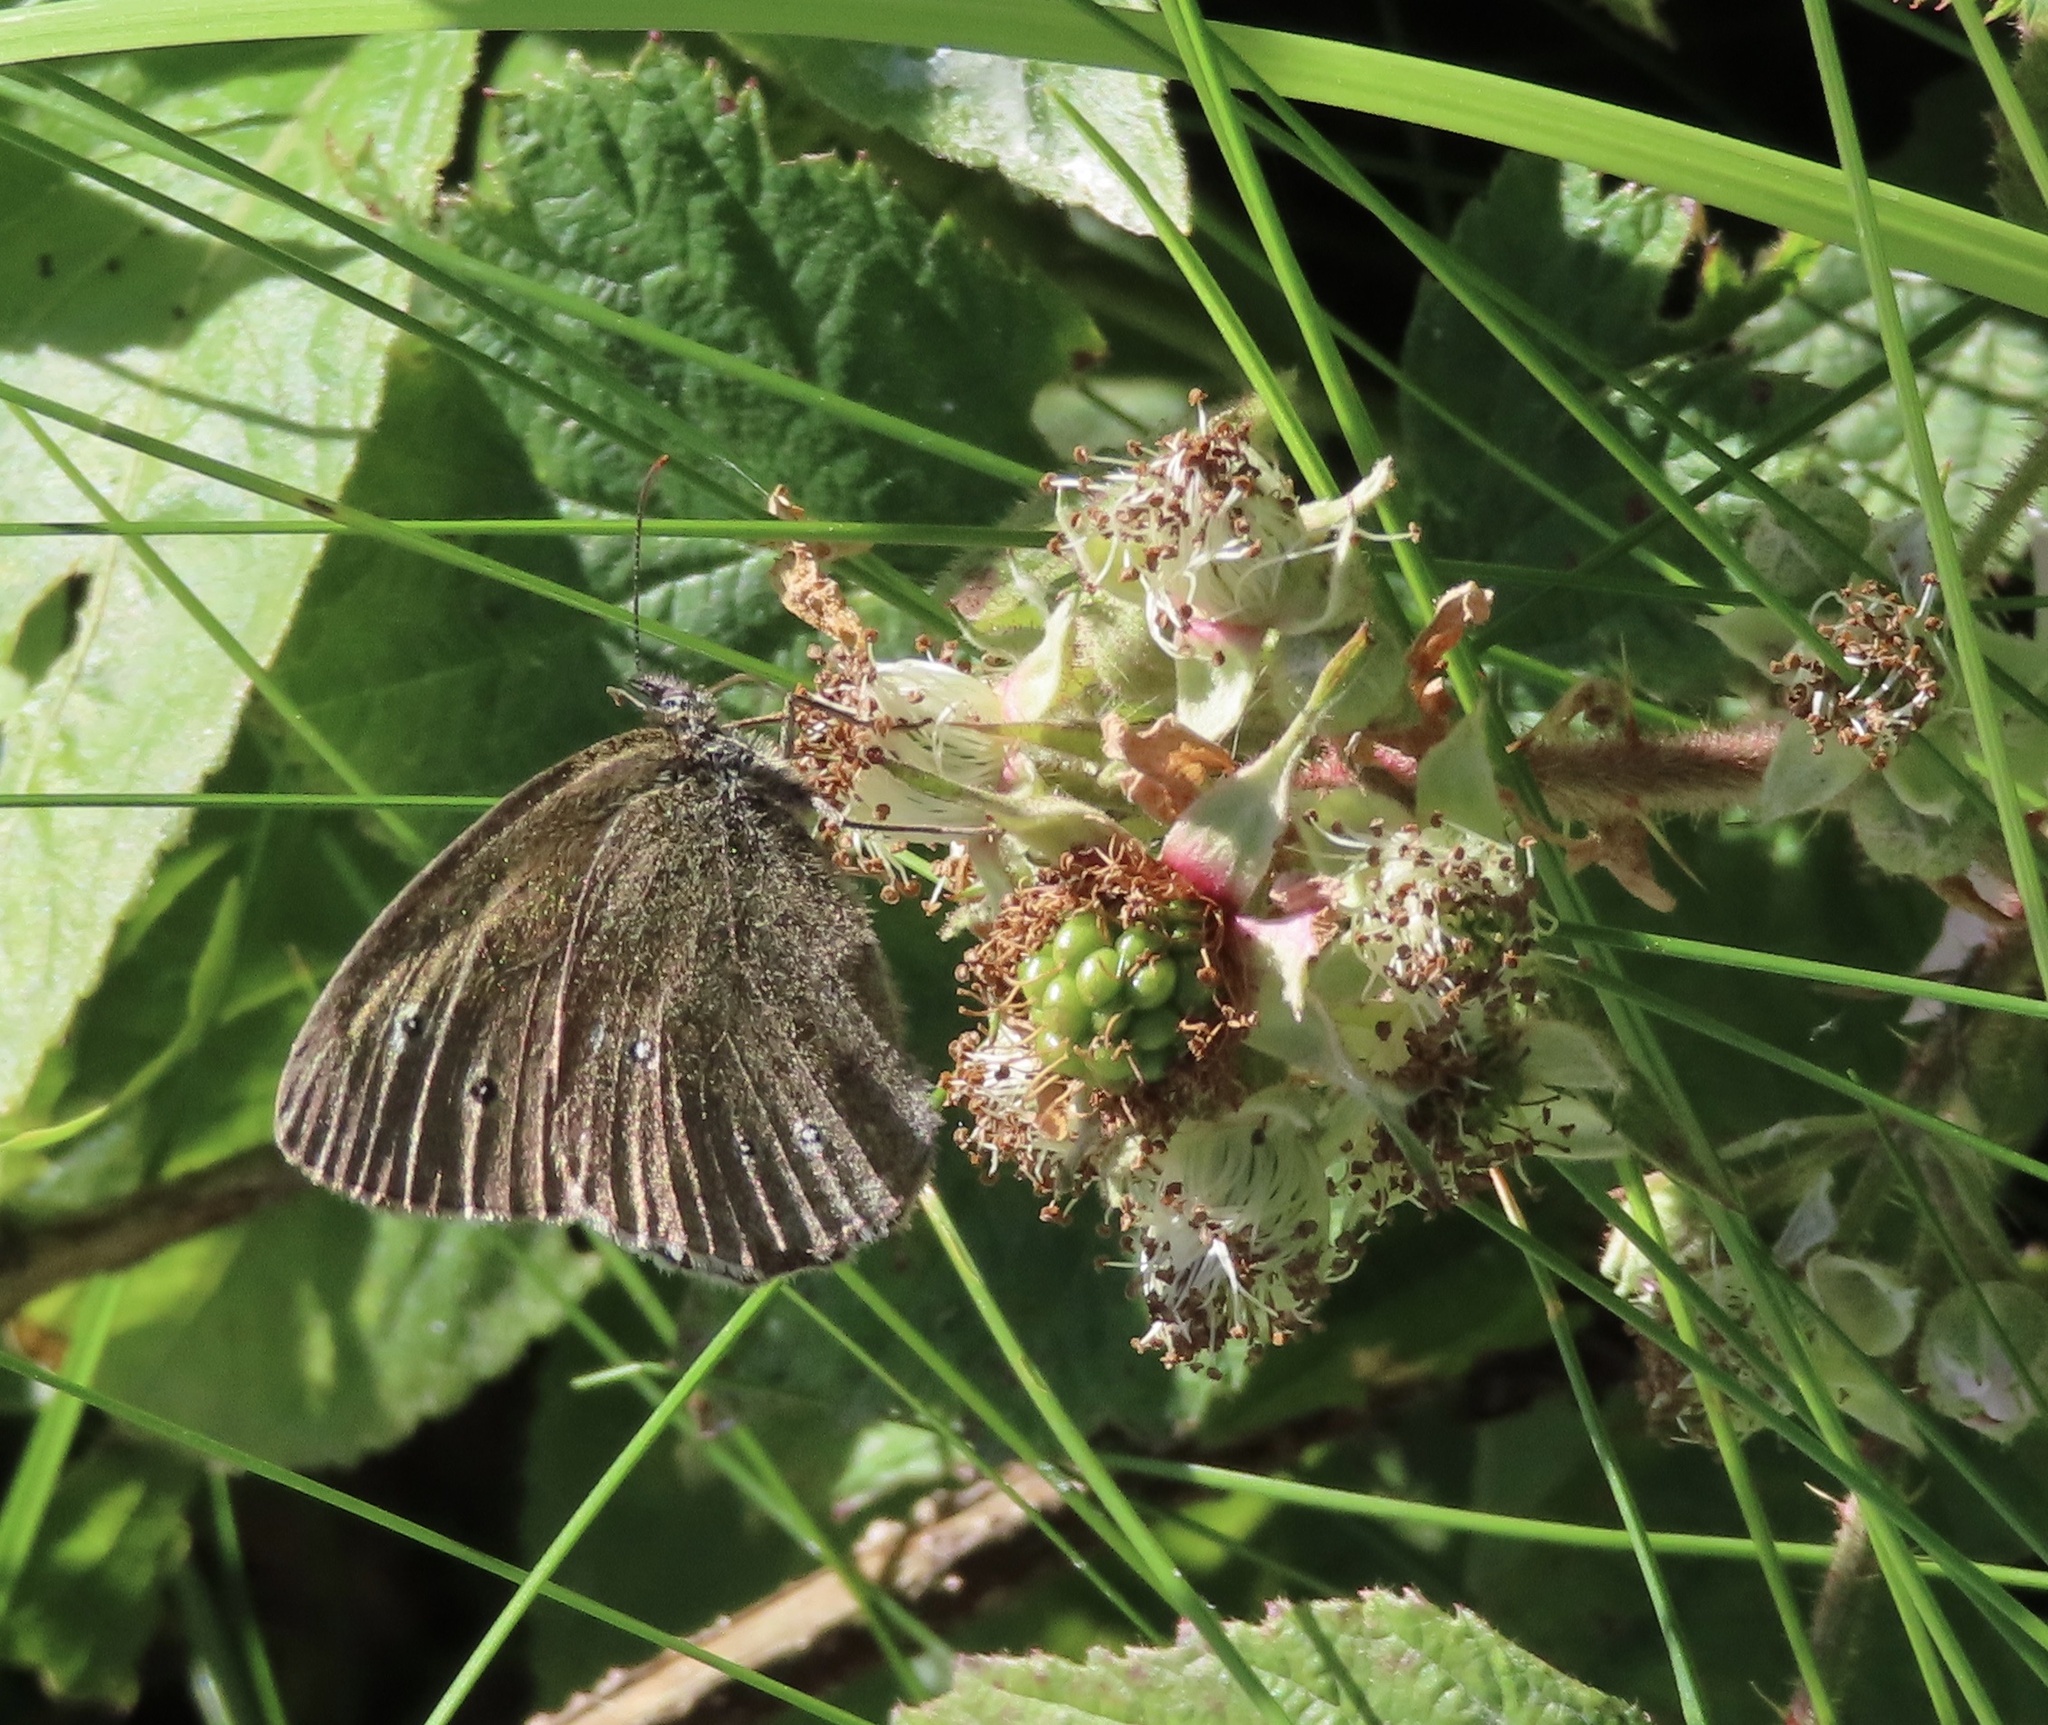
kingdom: Animalia
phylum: Arthropoda
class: Insecta
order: Lepidoptera
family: Nymphalidae
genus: Aphantopus
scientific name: Aphantopus hyperantus
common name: Ringlet
